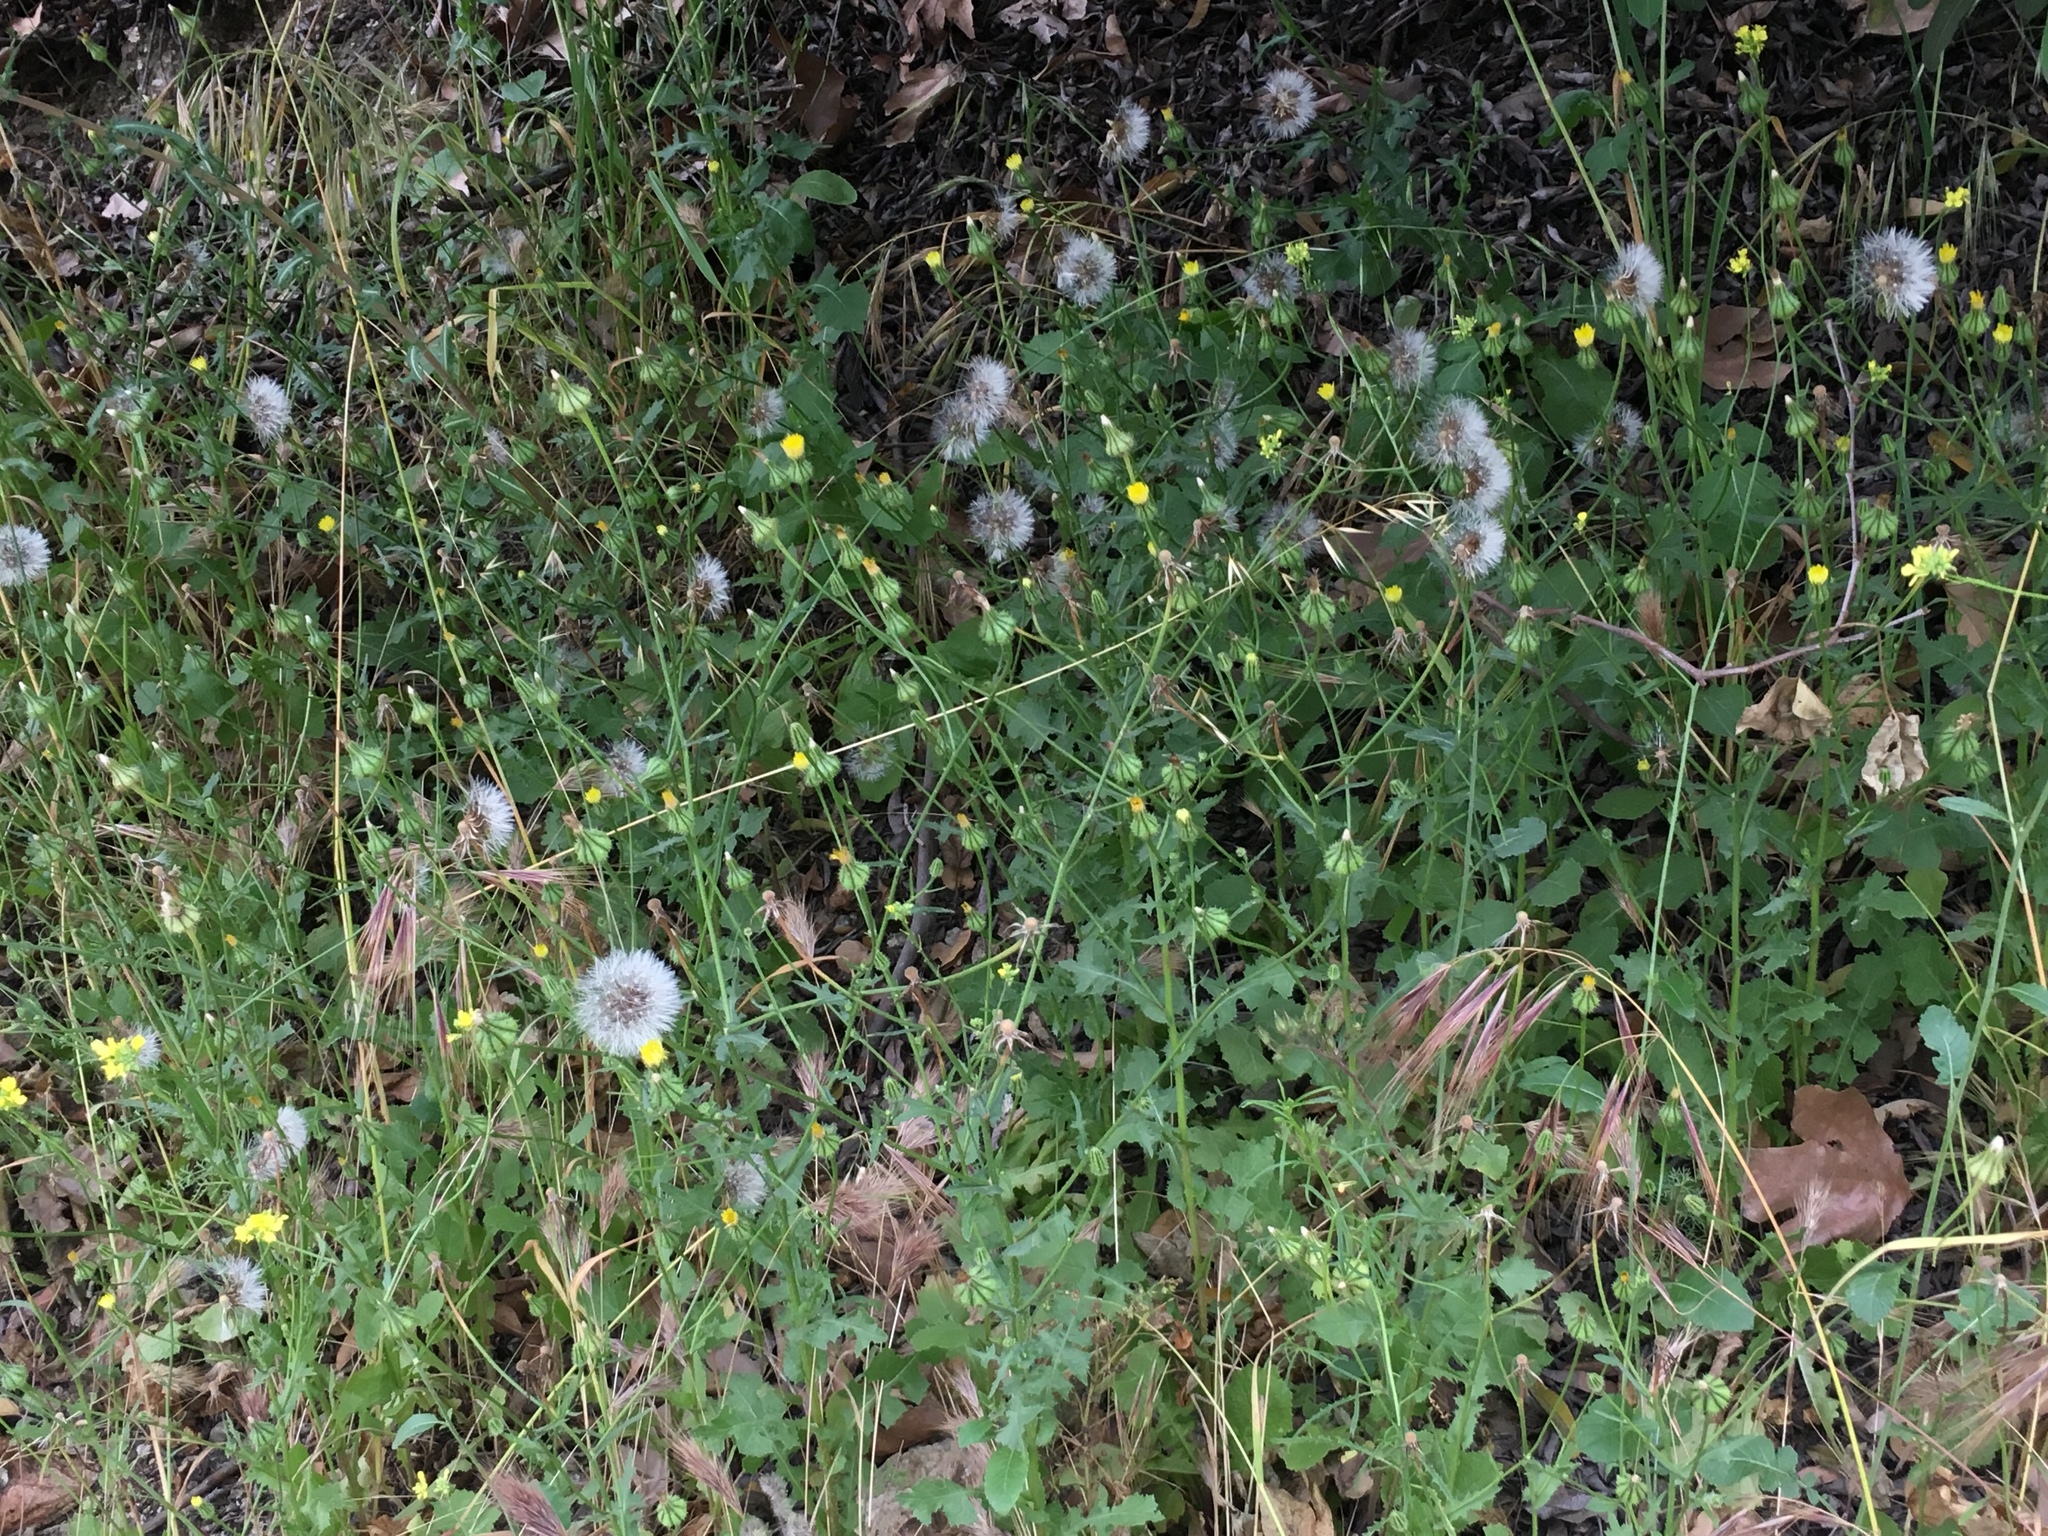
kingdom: Plantae
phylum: Tracheophyta
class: Magnoliopsida
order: Asterales
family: Asteraceae
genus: Urospermum
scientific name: Urospermum picroides
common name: False hawkbit
